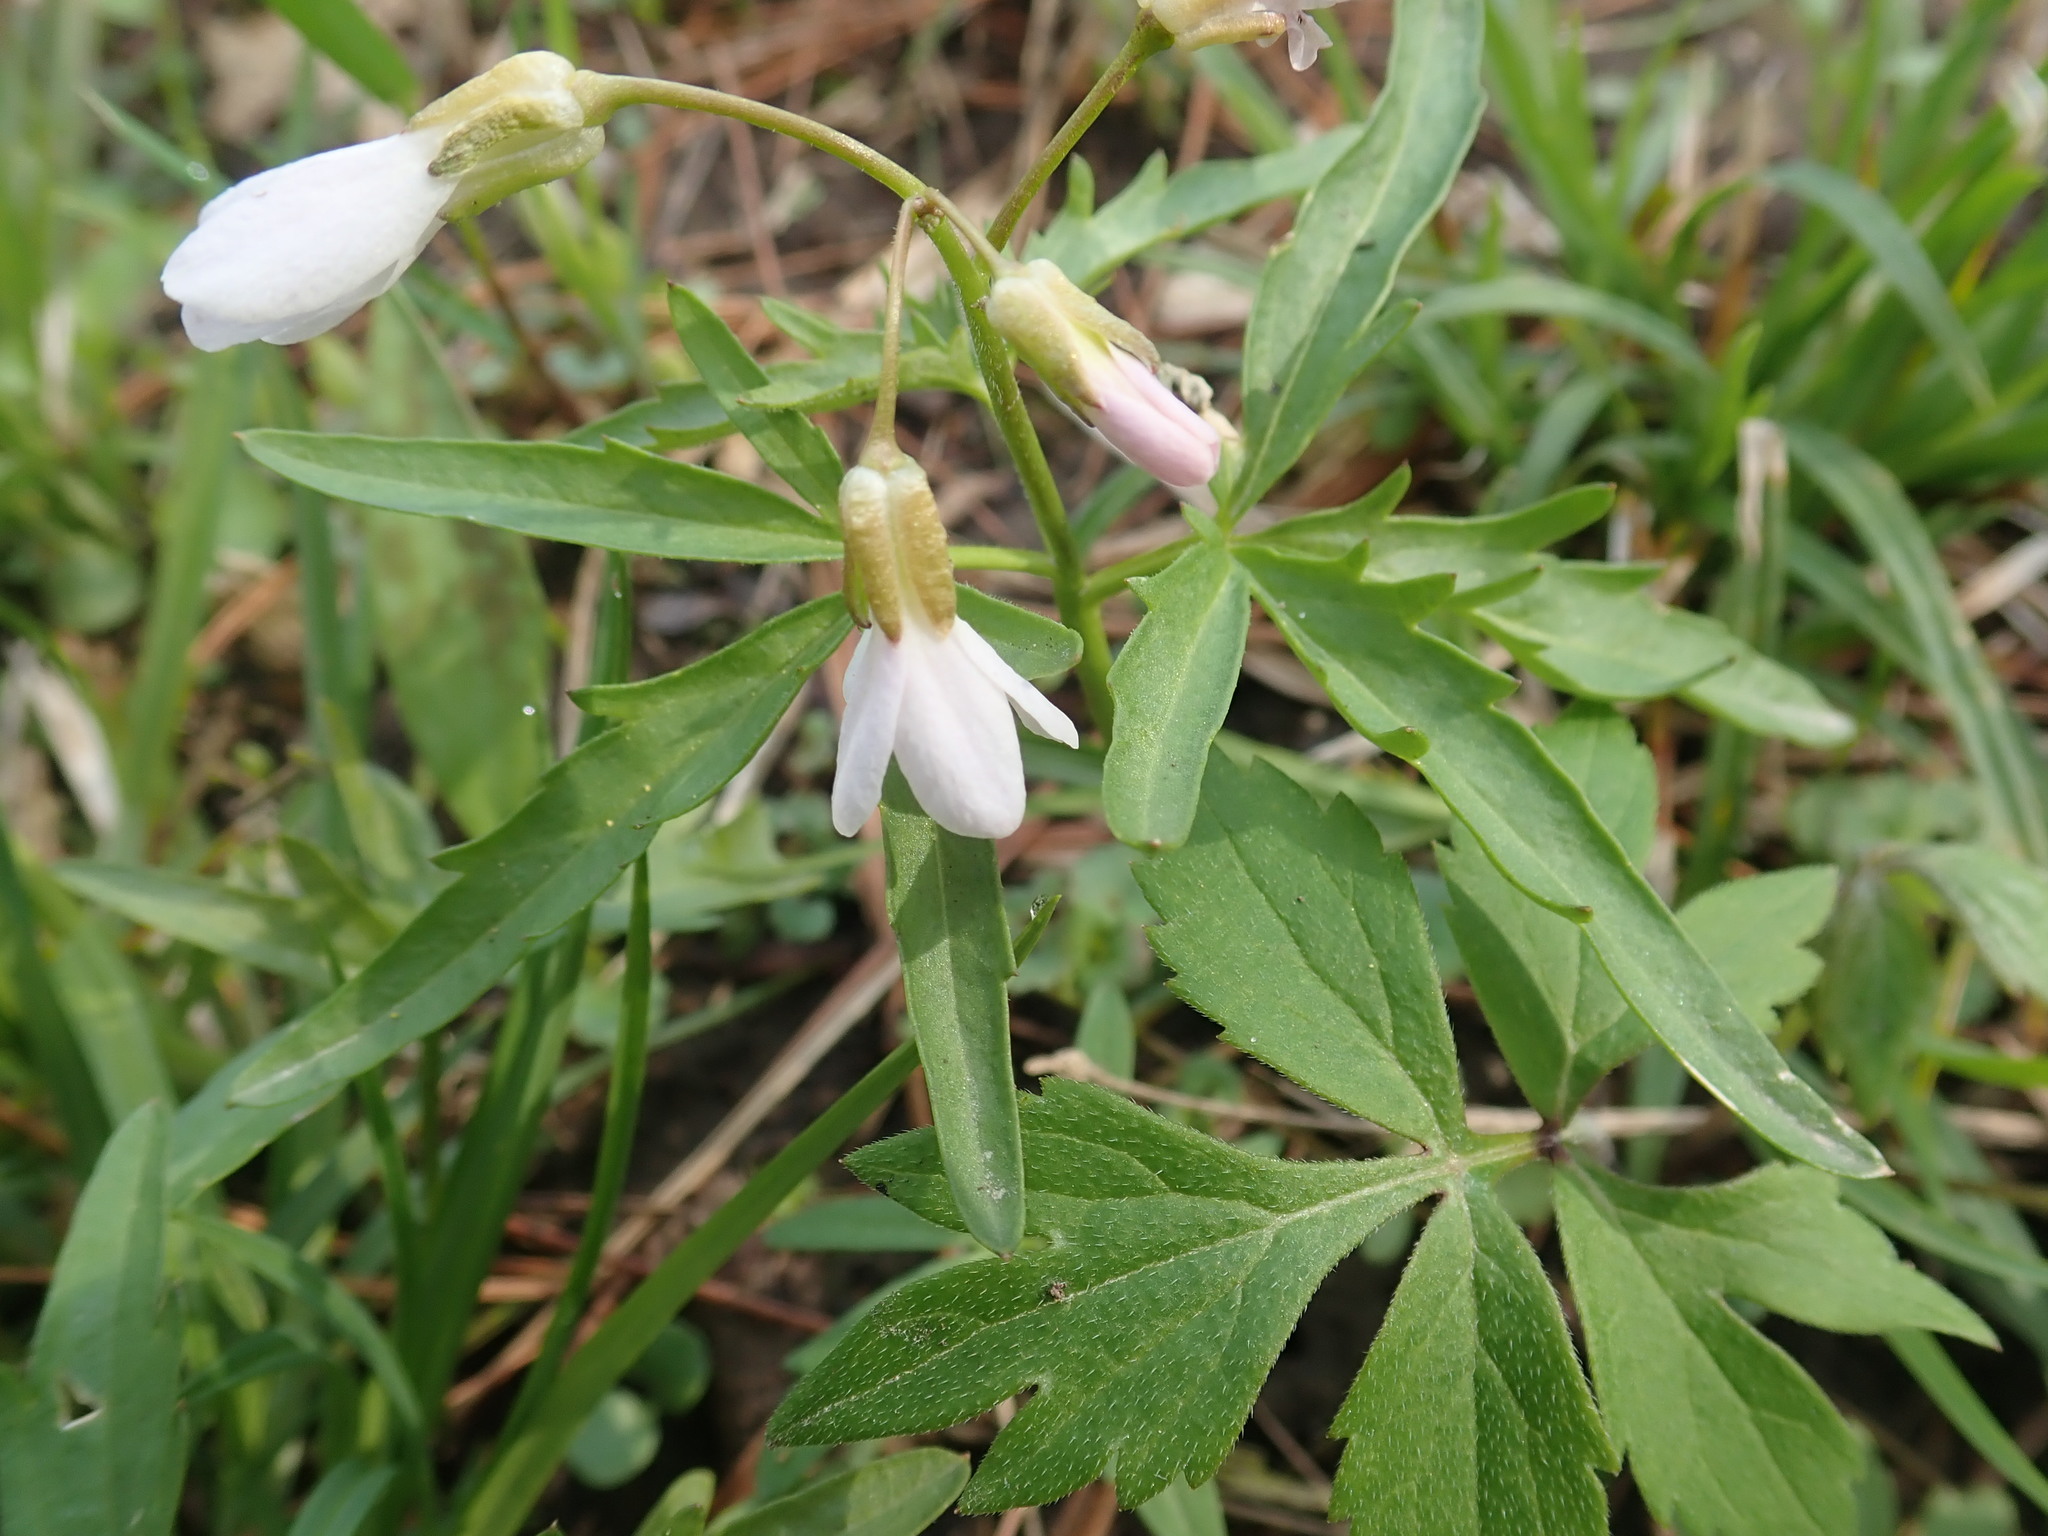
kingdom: Plantae
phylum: Tracheophyta
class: Magnoliopsida
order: Brassicales
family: Brassicaceae
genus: Cardamine
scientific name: Cardamine concatenata
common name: Cut-leaf toothcup
